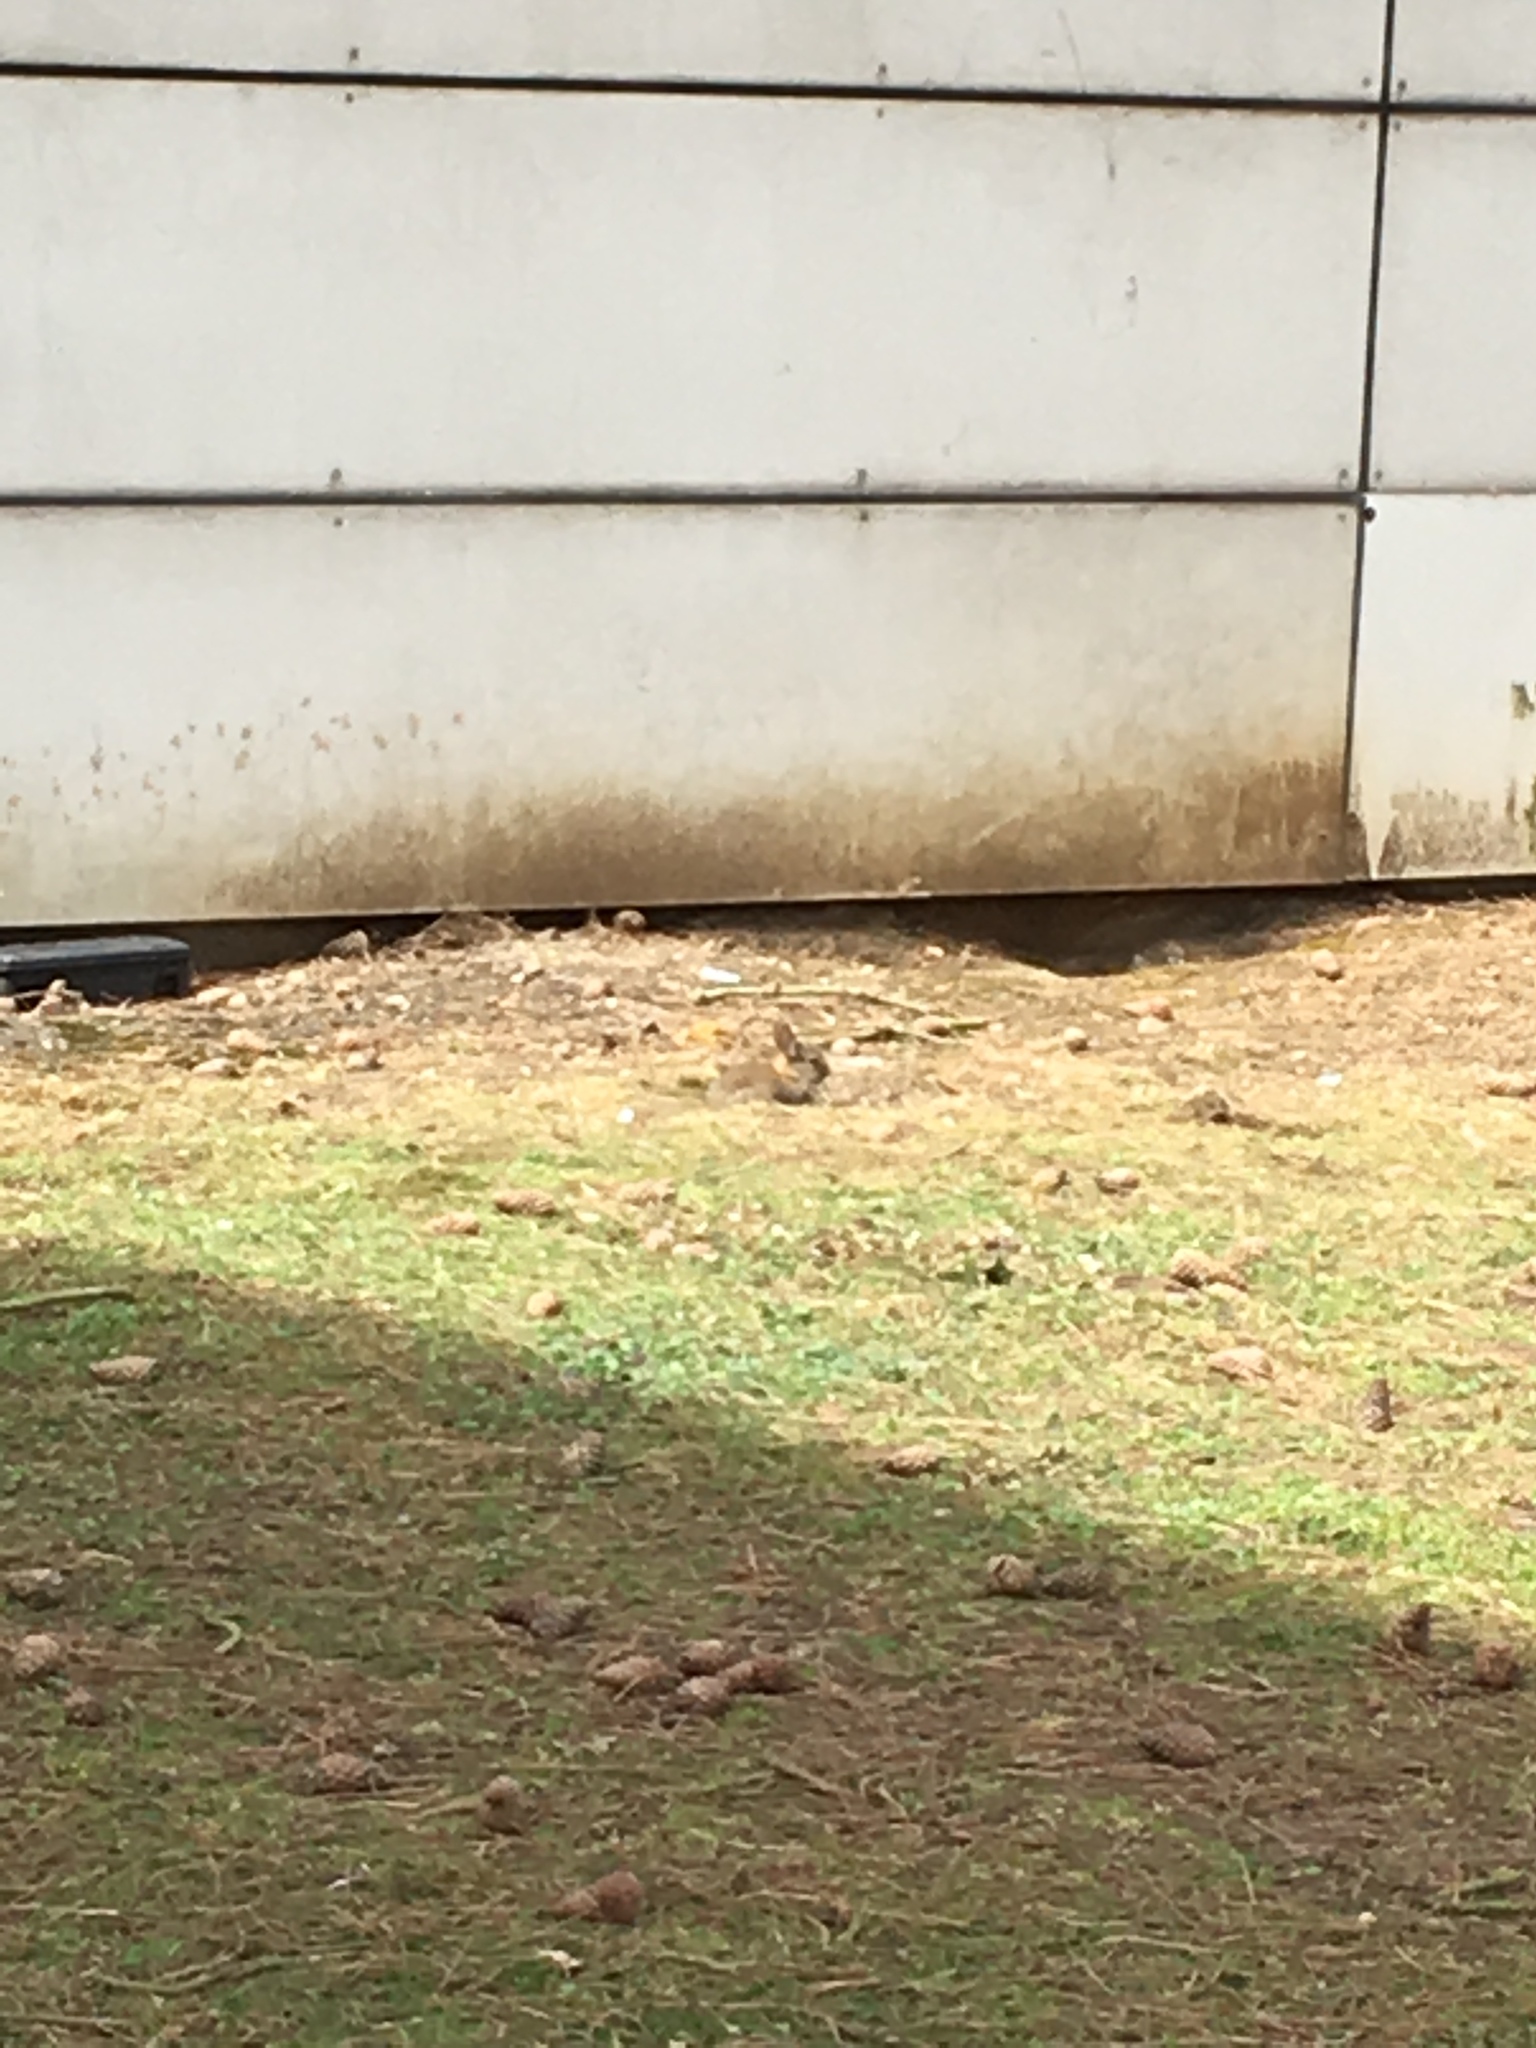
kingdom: Animalia
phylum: Chordata
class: Mammalia
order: Lagomorpha
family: Leporidae
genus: Oryctolagus
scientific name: Oryctolagus cuniculus
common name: European rabbit
